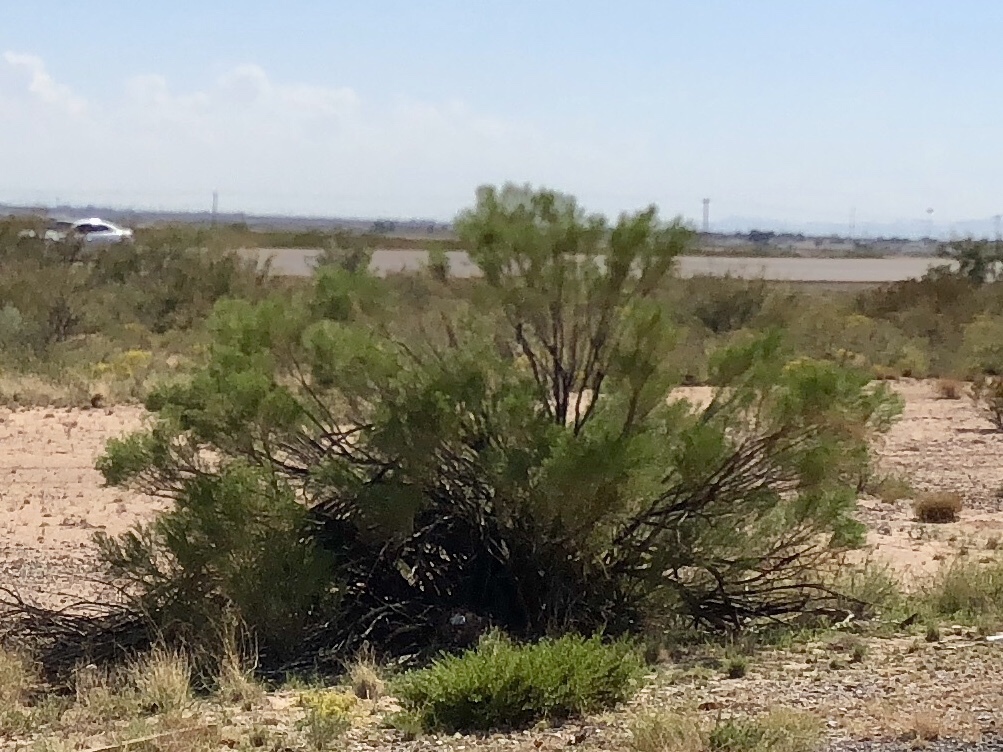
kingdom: Plantae
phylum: Tracheophyta
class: Magnoliopsida
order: Asterales
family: Asteraceae
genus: Baccharis
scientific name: Baccharis sarothroides
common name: Desert-broom
